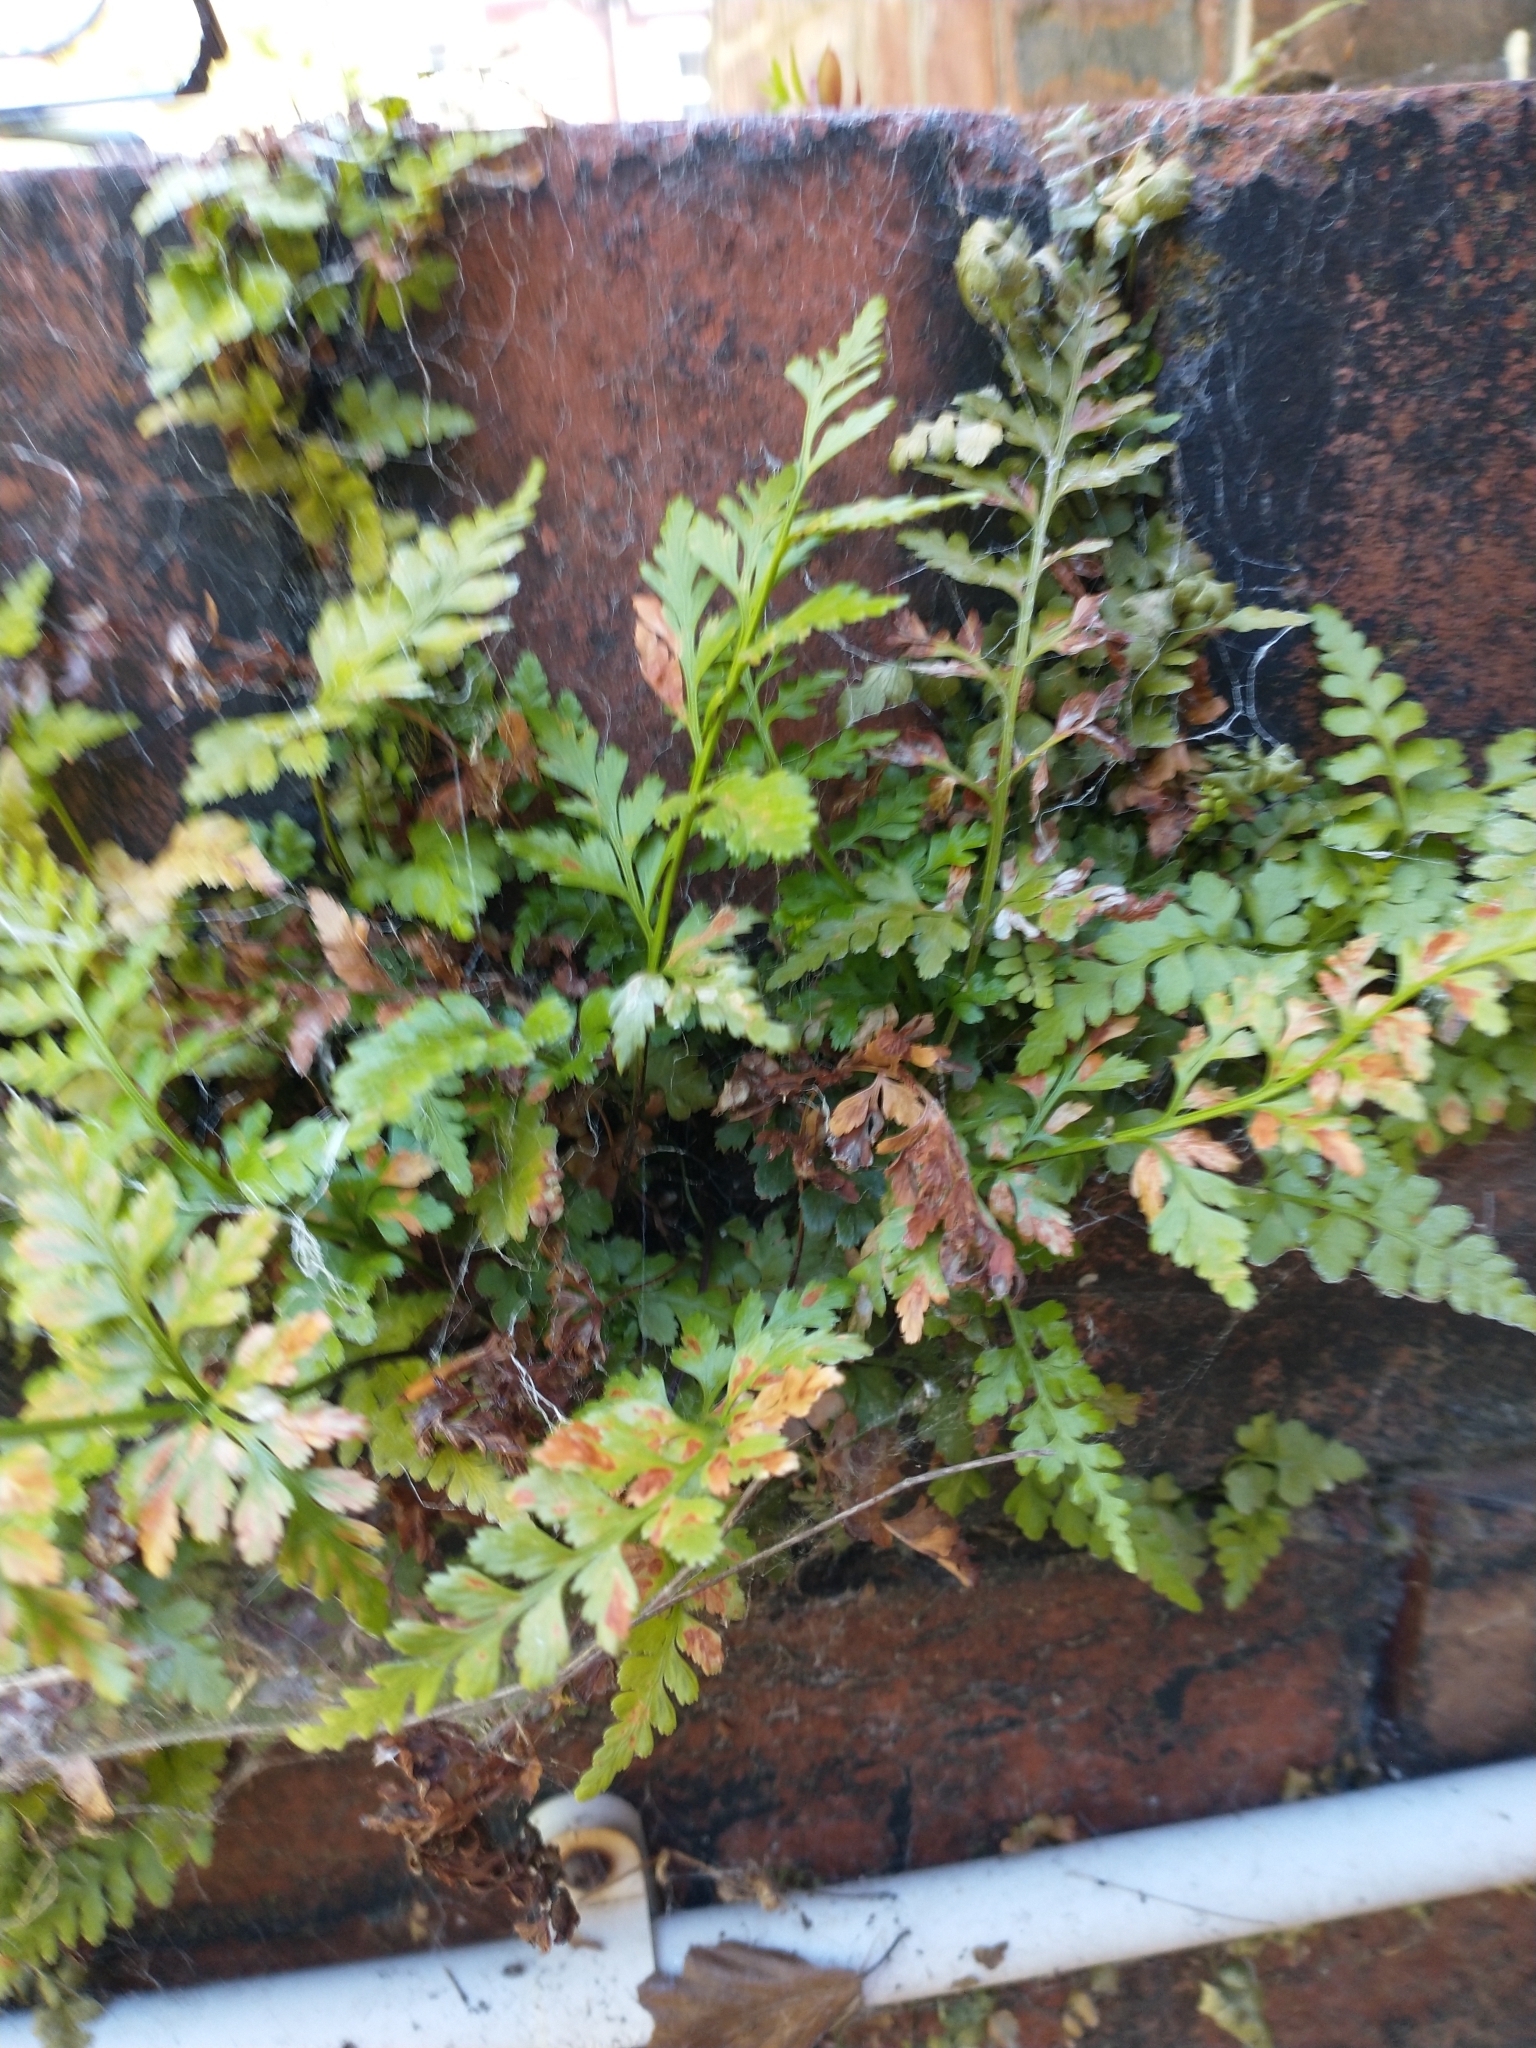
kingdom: Plantae
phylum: Tracheophyta
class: Polypodiopsida
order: Polypodiales
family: Aspleniaceae
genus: Asplenium
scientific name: Asplenium adiantum-nigrum
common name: Black spleenwort
